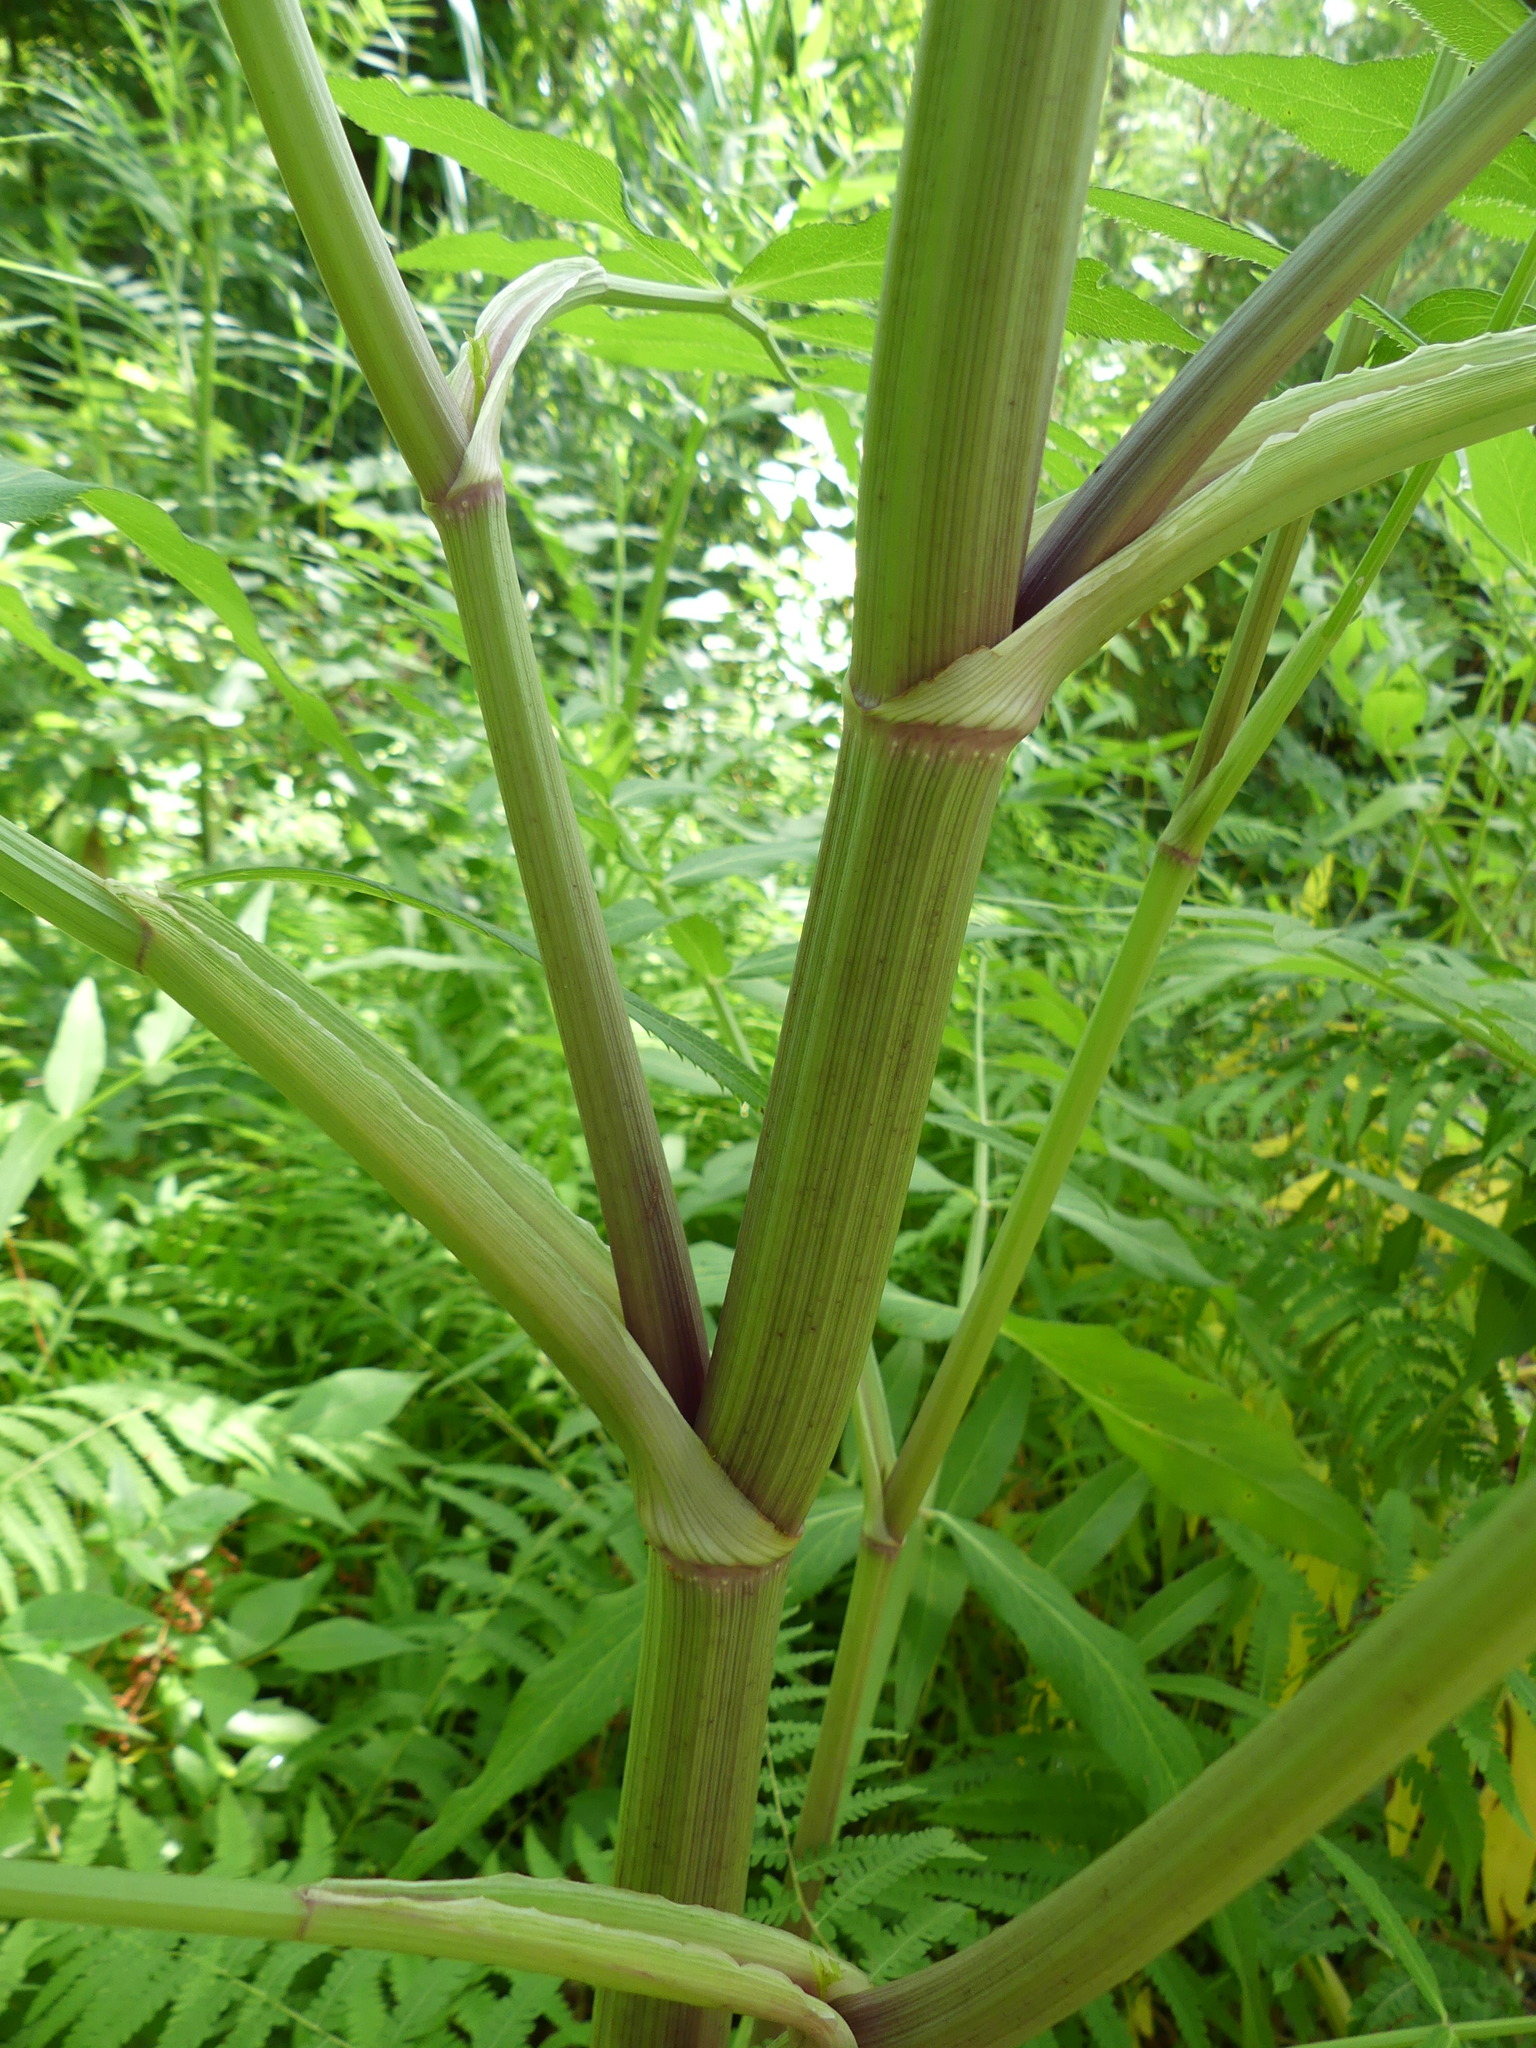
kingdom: Plantae
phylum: Tracheophyta
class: Magnoliopsida
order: Apiales
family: Apiaceae
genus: Sium
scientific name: Sium suave
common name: Hemlock water-parsnip
